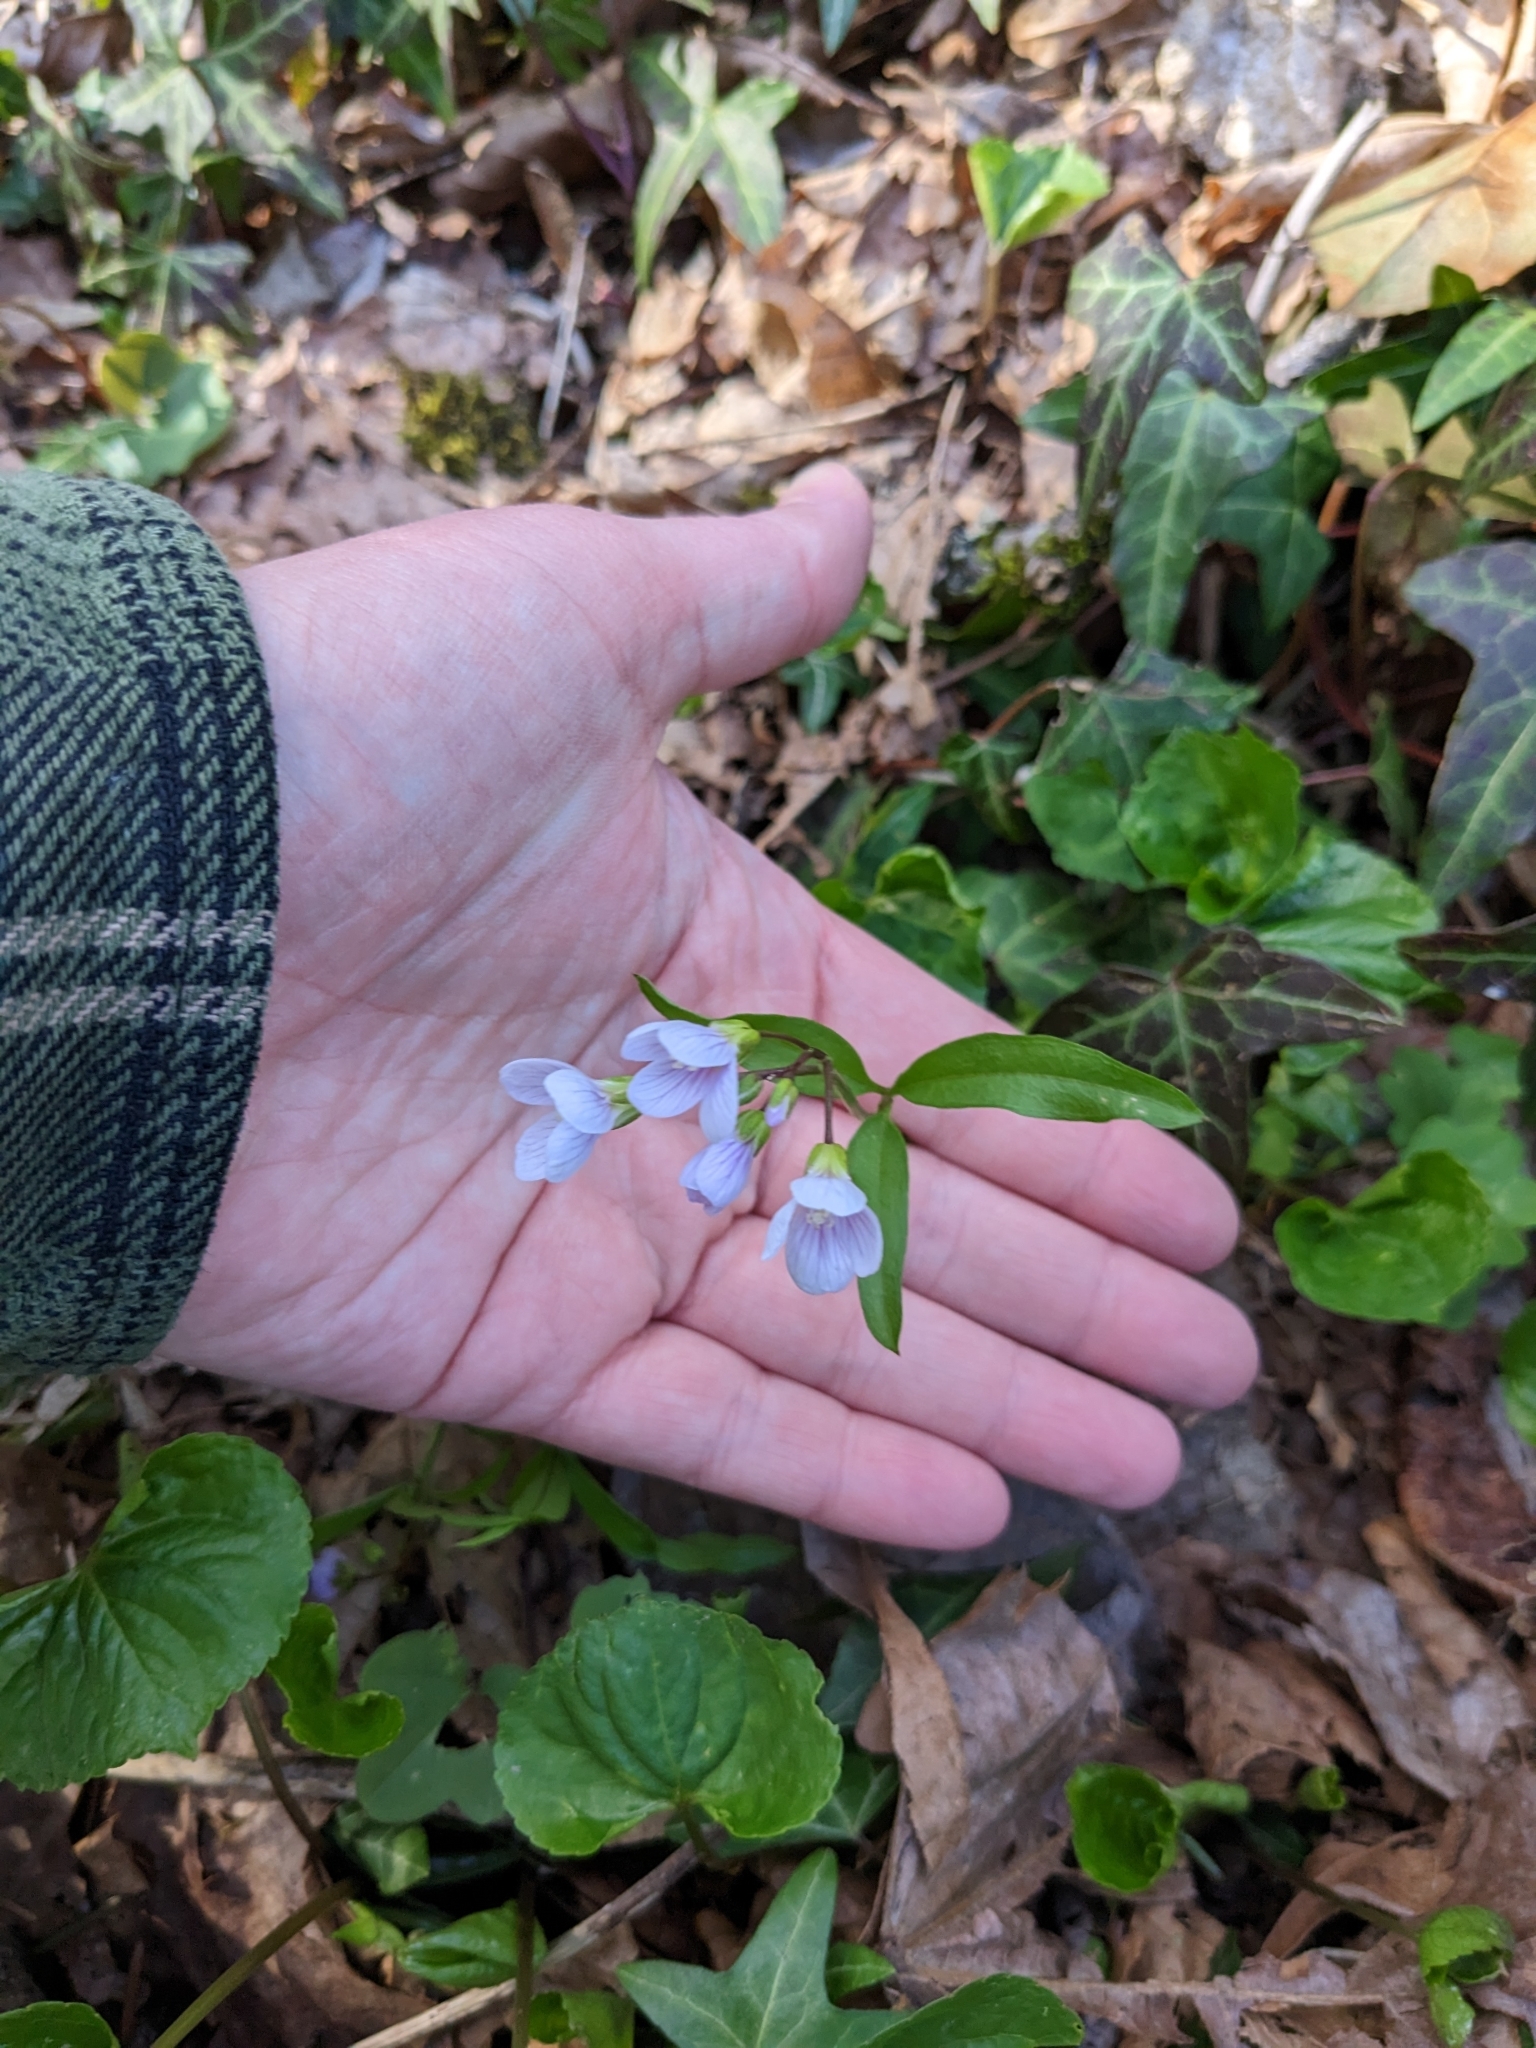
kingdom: Plantae
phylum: Tracheophyta
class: Magnoliopsida
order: Brassicales
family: Brassicaceae
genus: Cardamine
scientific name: Cardamine nuttallii
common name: Nuttall's toothwort
